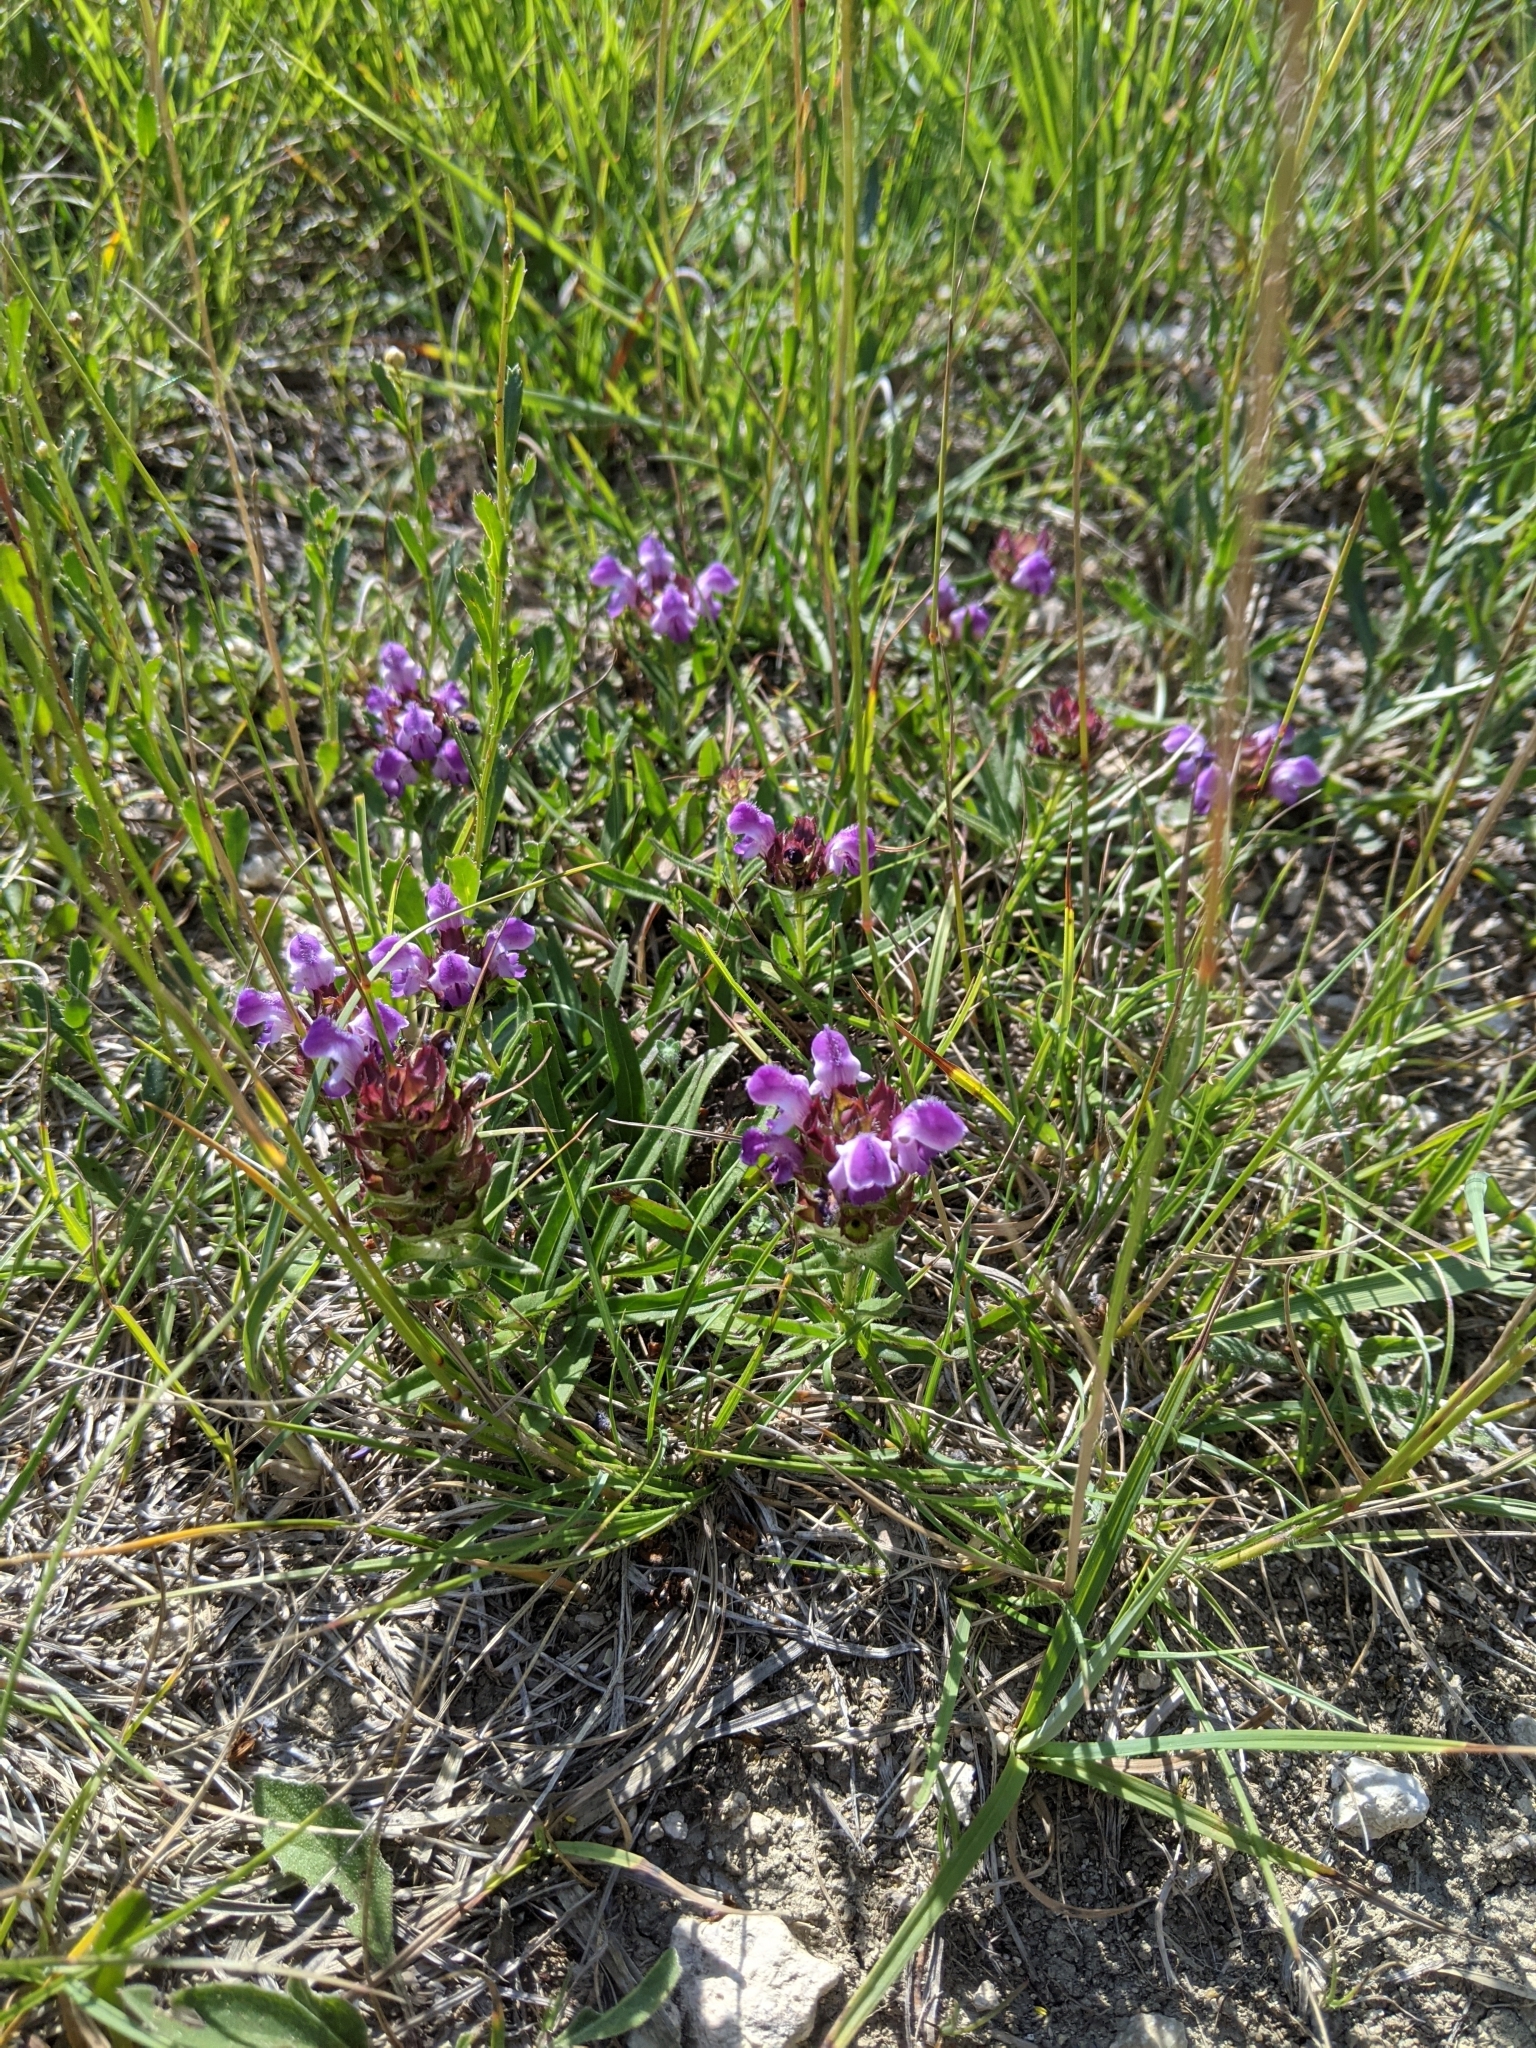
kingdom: Plantae
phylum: Tracheophyta
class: Magnoliopsida
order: Lamiales
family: Lamiaceae
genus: Prunella
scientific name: Prunella hyssopifolia
